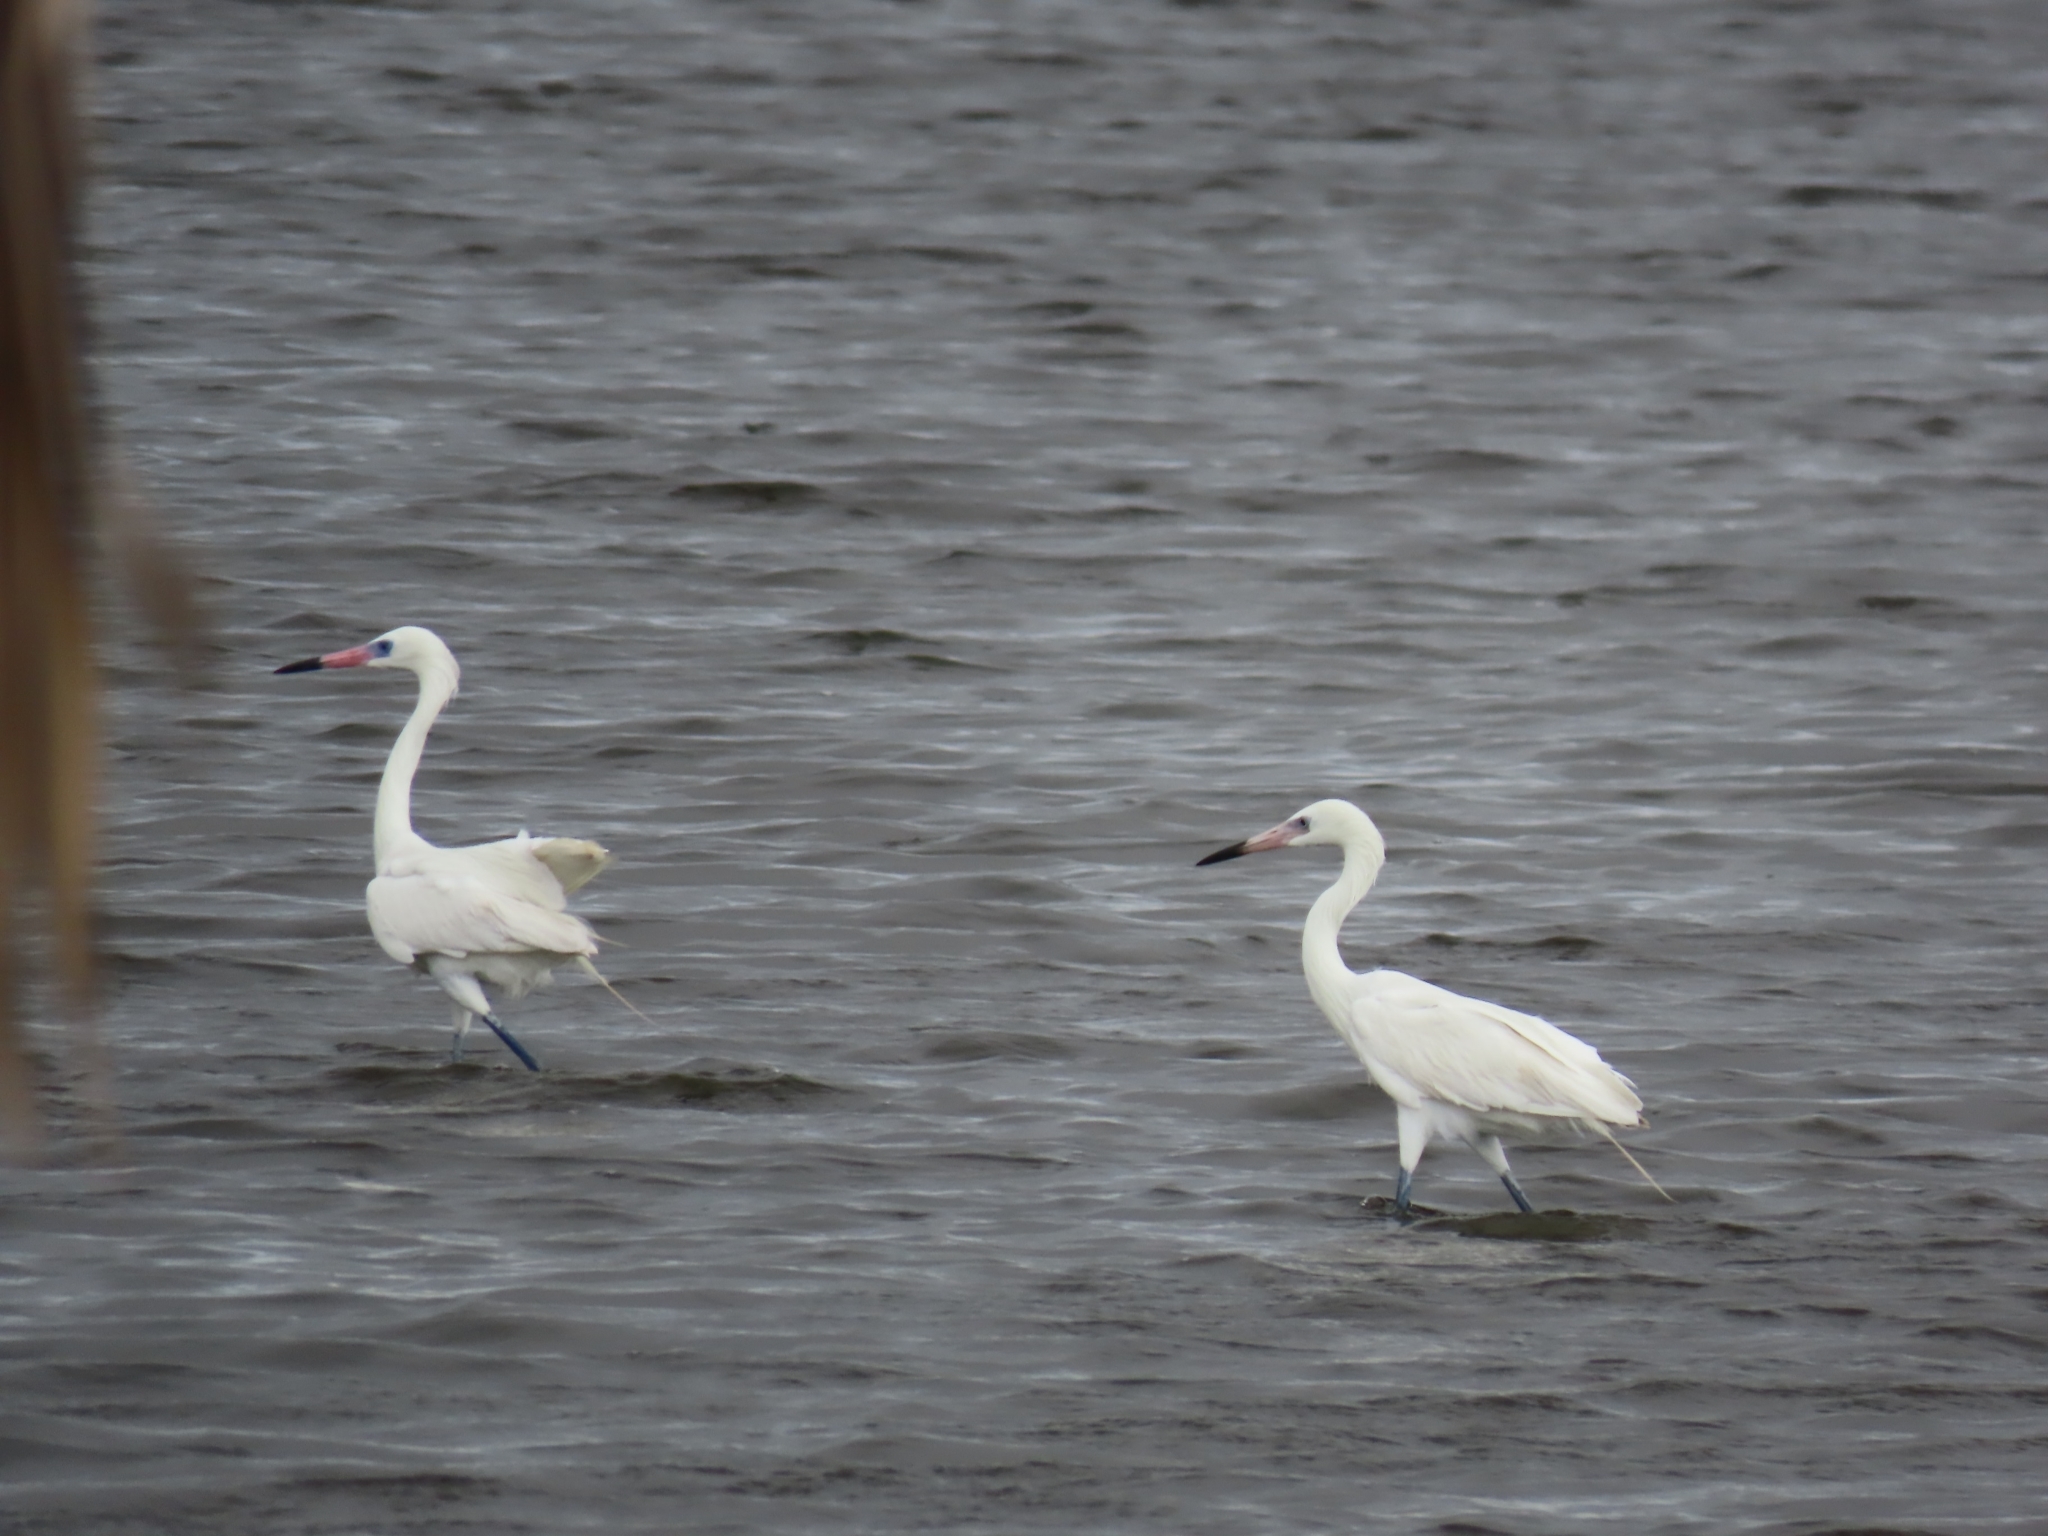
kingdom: Animalia
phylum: Chordata
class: Aves
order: Pelecaniformes
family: Ardeidae
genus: Egretta
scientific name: Egretta rufescens
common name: Reddish egret
